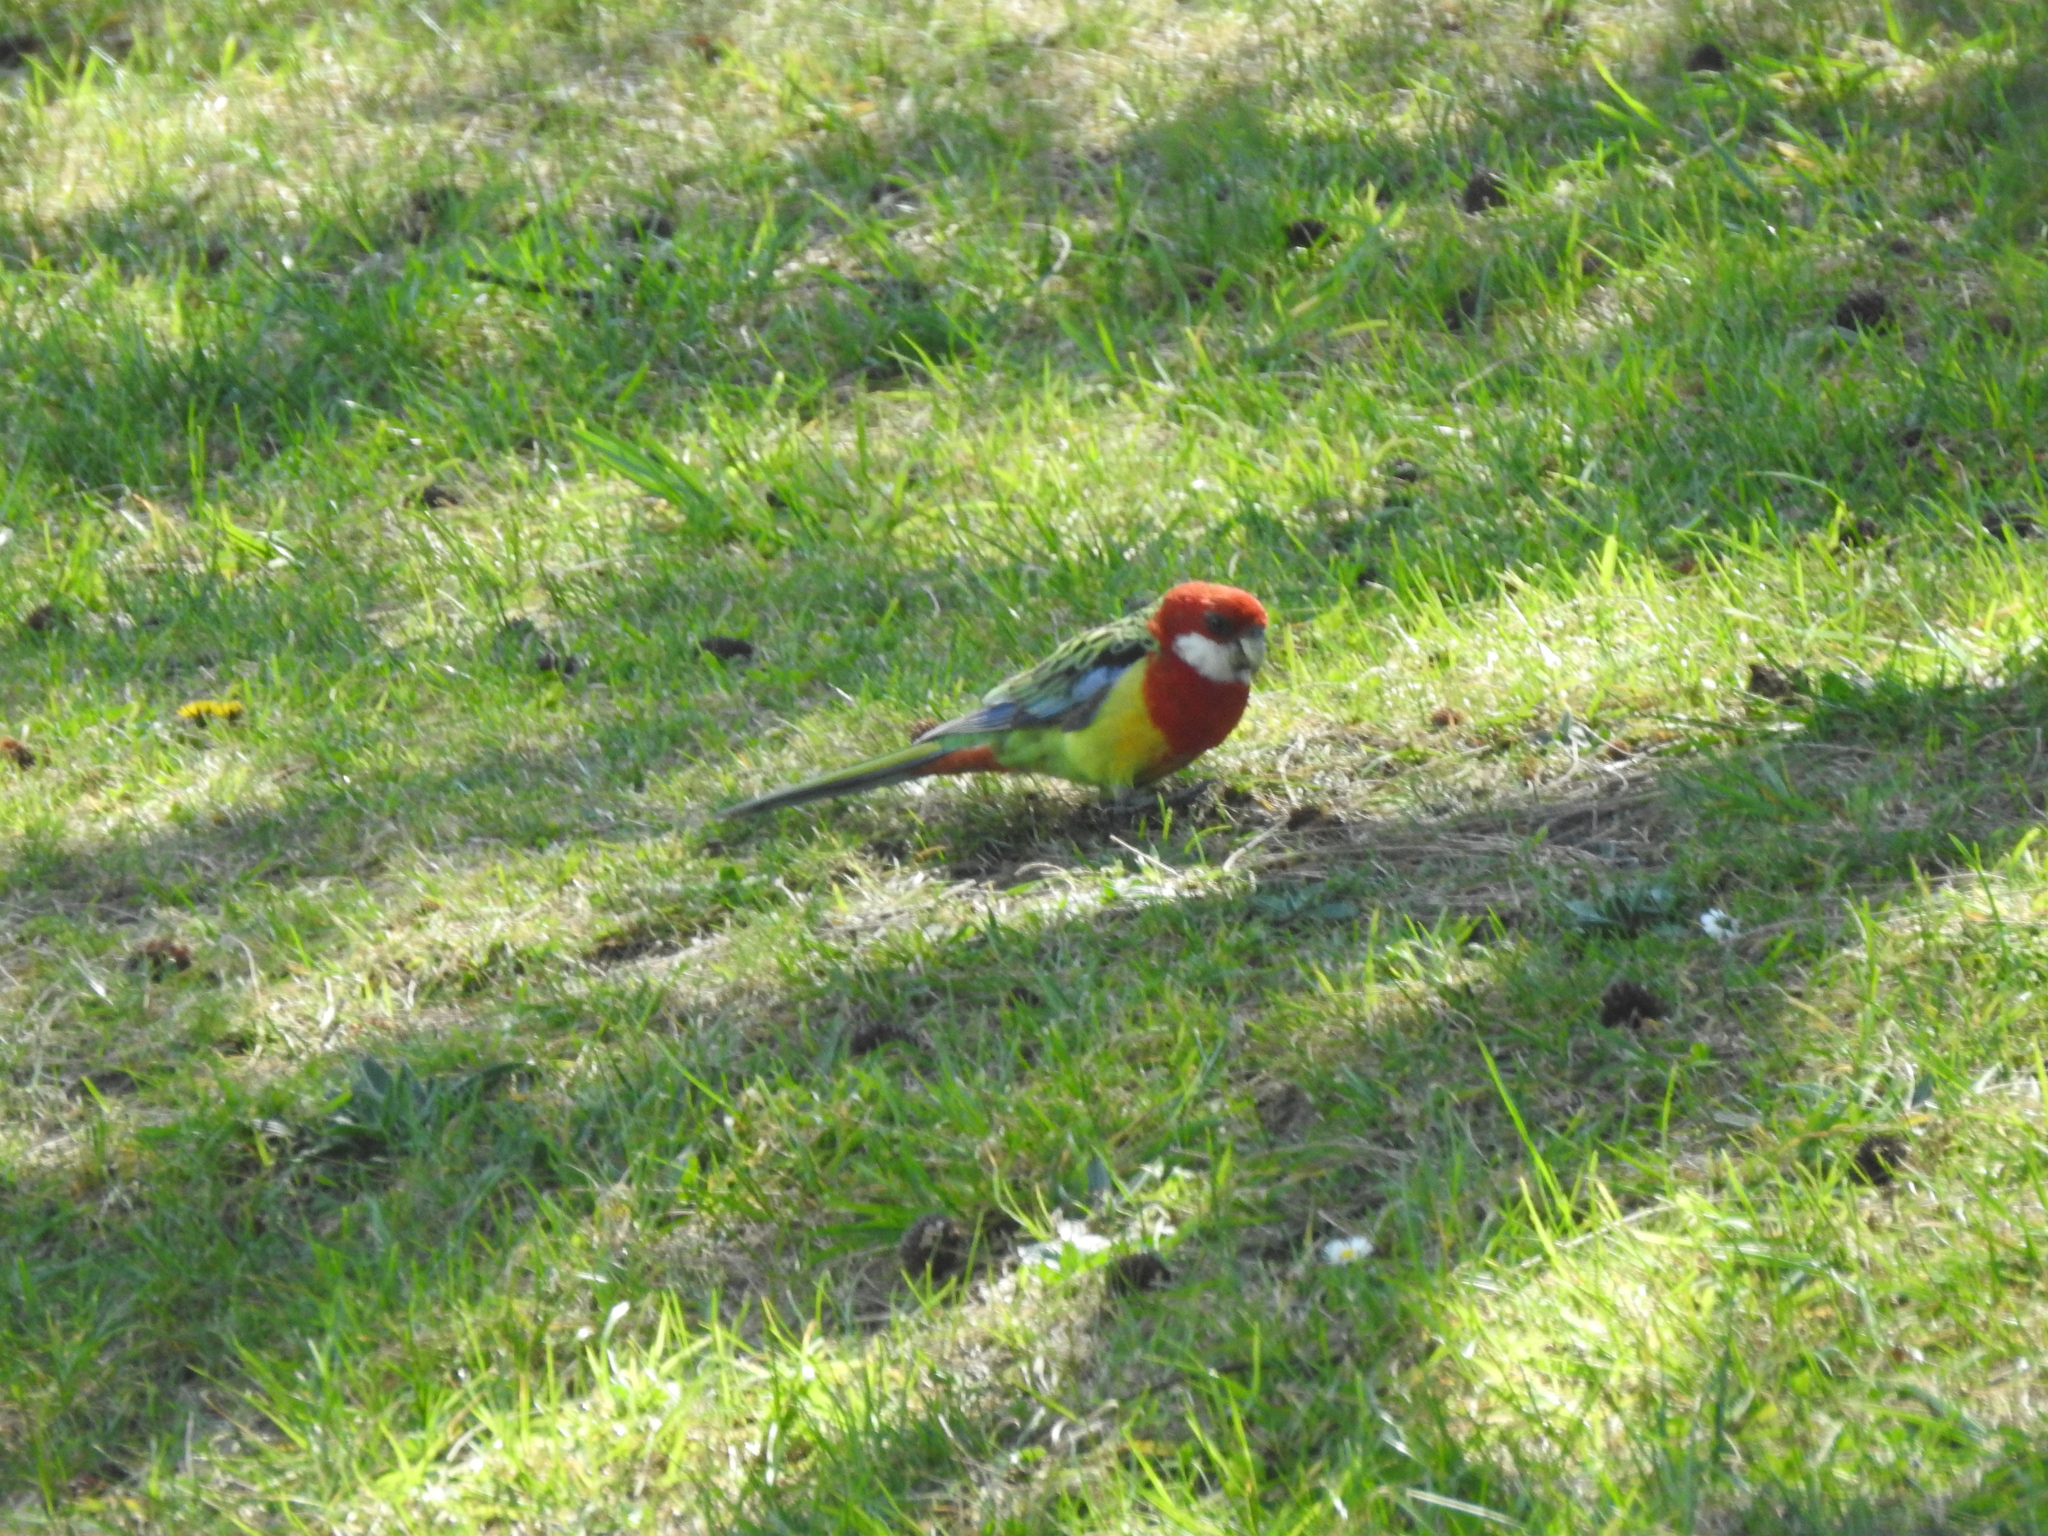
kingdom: Animalia
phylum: Chordata
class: Aves
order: Psittaciformes
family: Psittacidae
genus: Platycercus
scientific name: Platycercus eximius
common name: Eastern rosella
